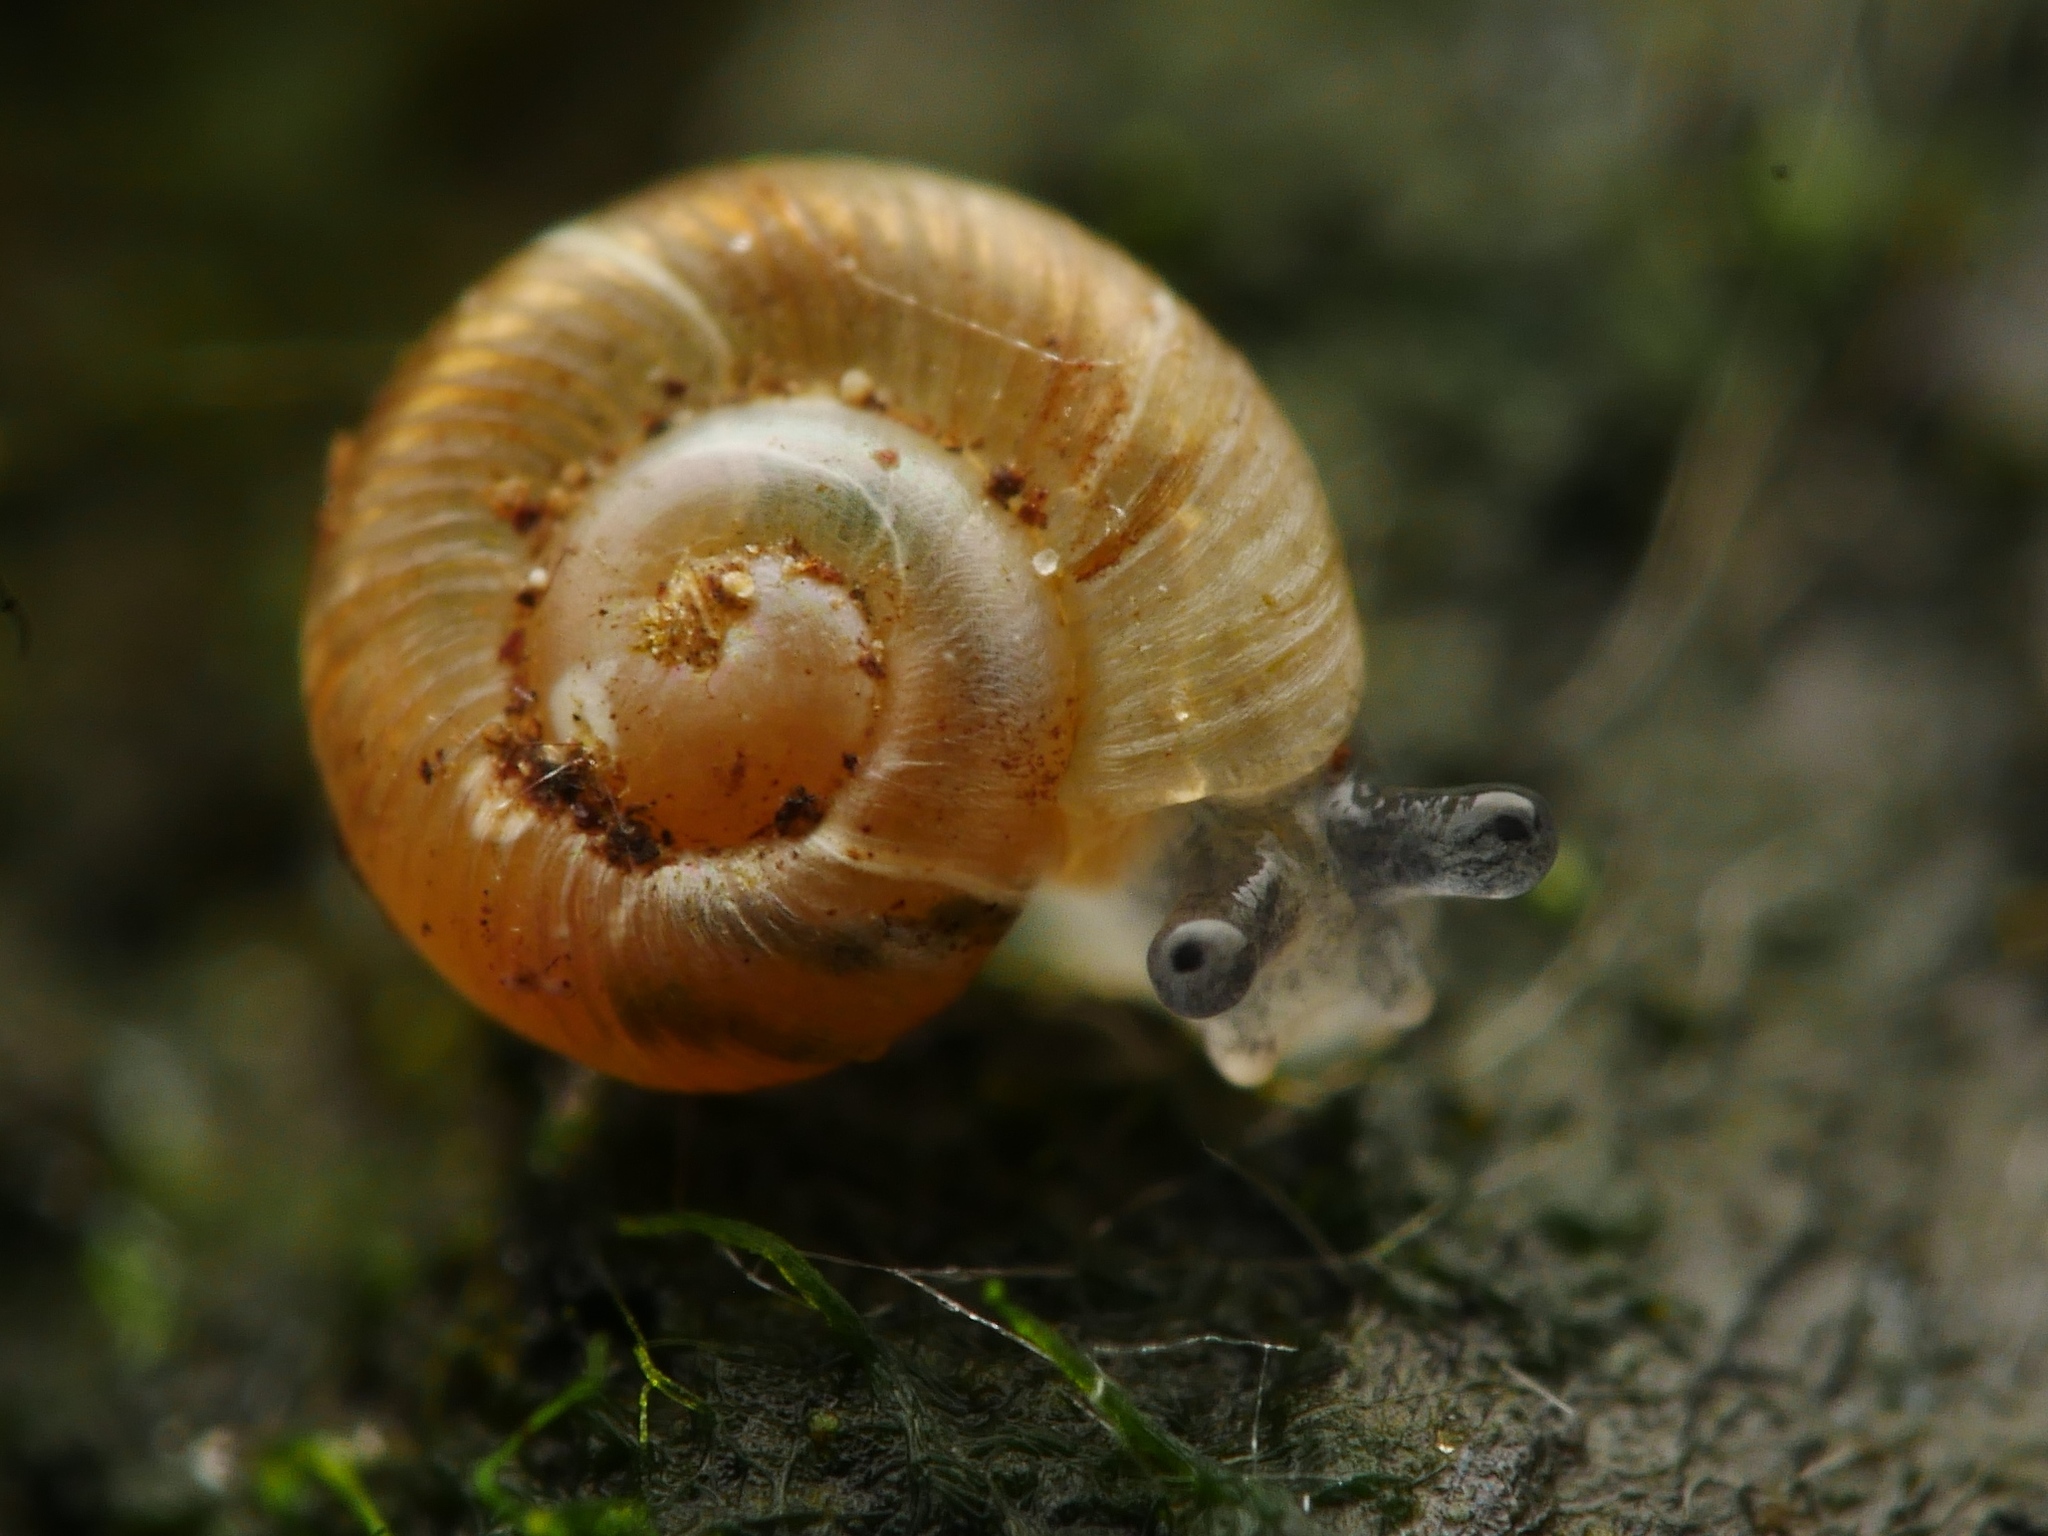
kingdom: Animalia
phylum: Mollusca
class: Gastropoda
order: Stylommatophora
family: Discidae
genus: Discus
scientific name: Discus rotundatus
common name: Rounded snail
